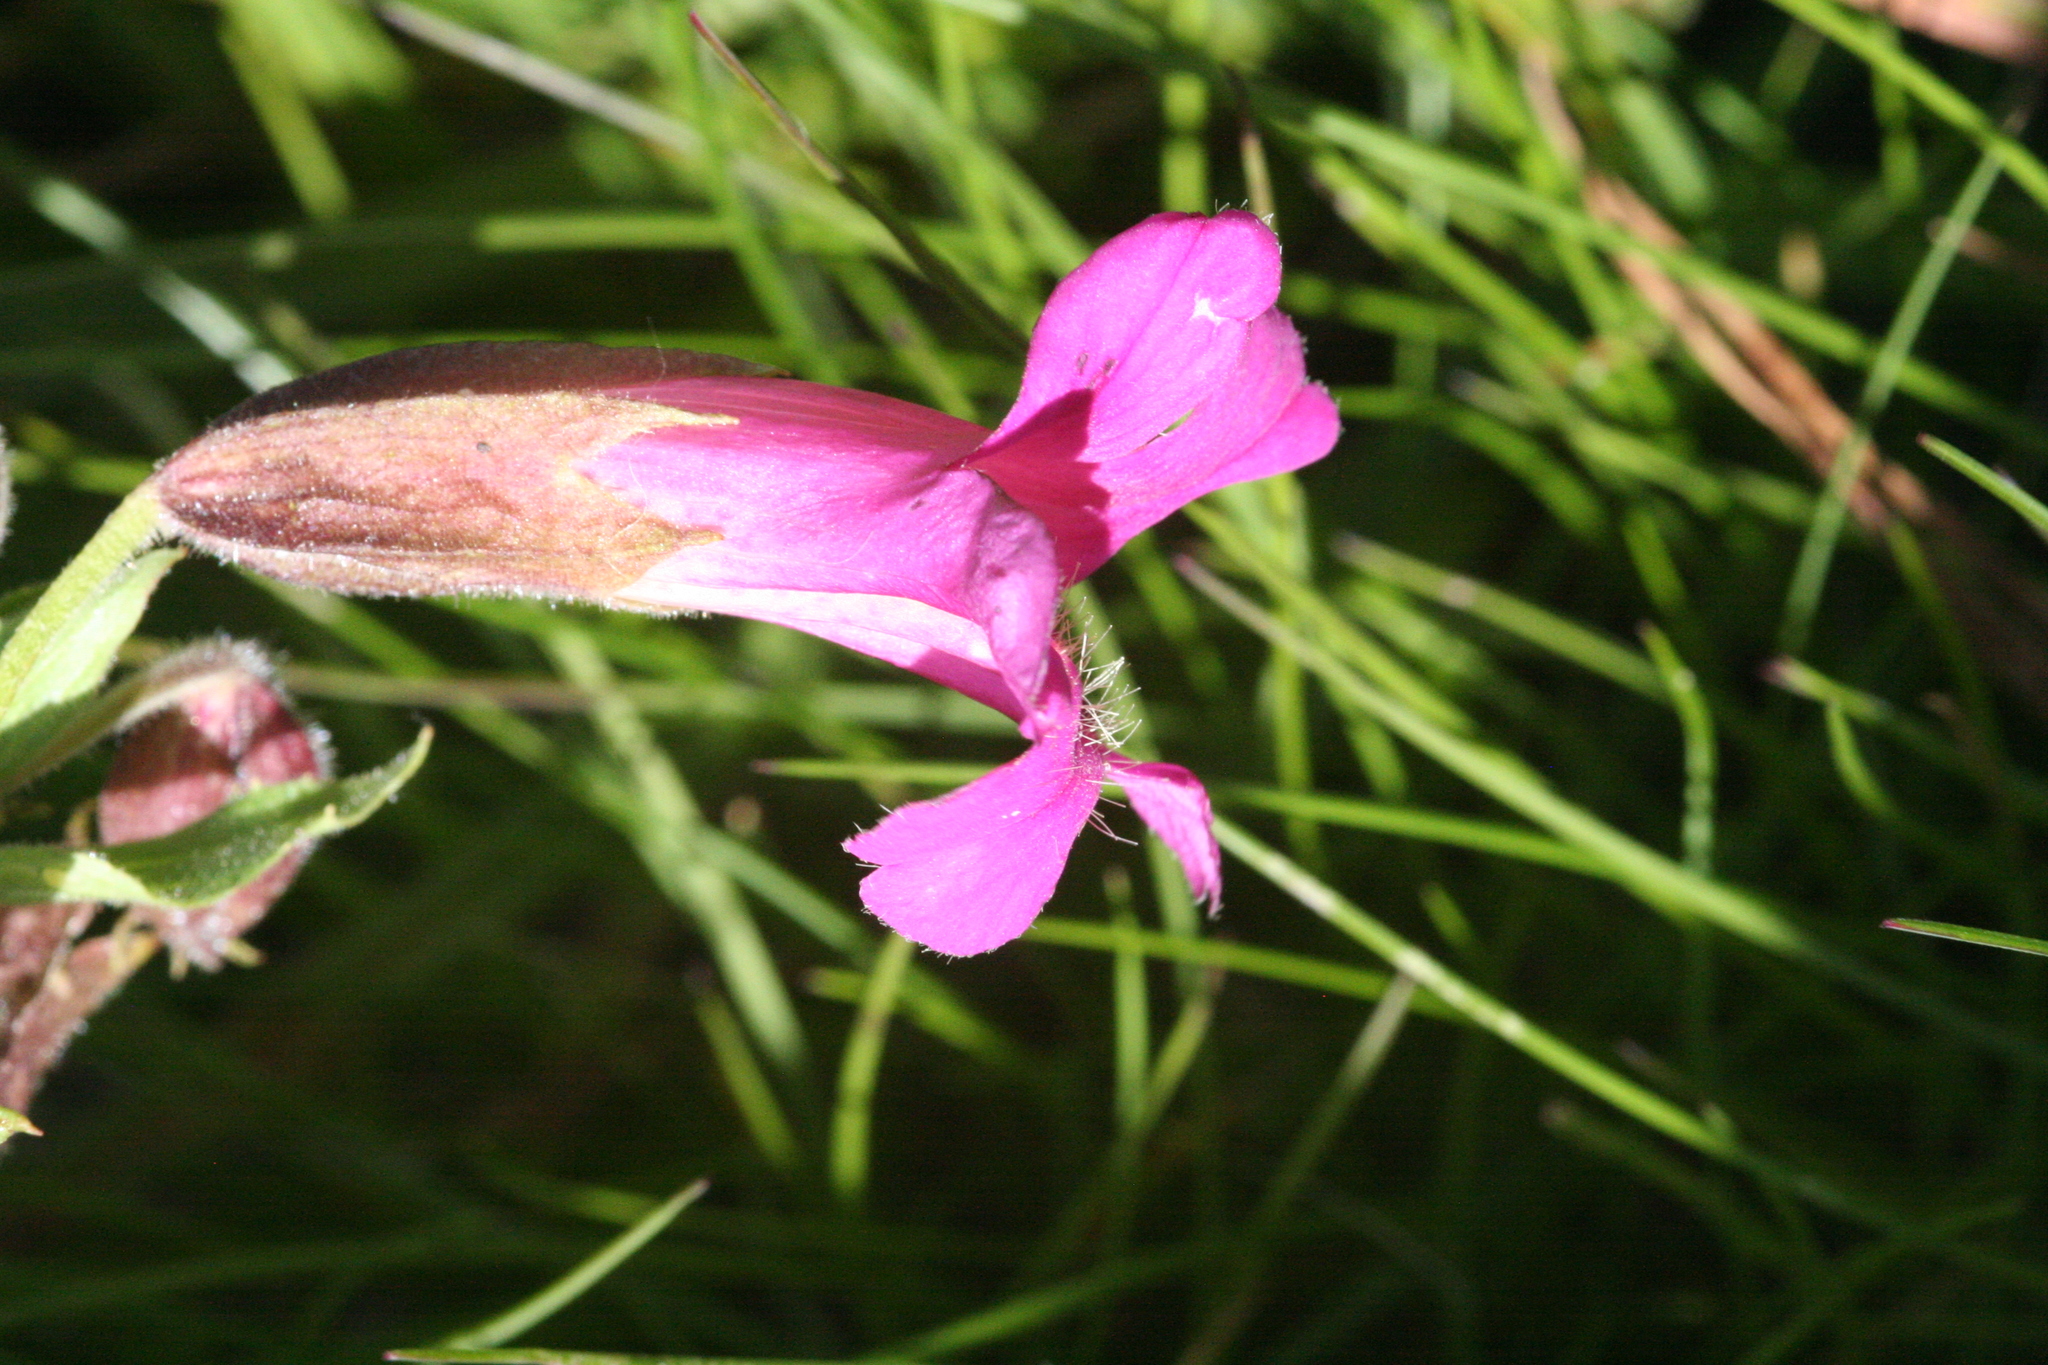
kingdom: Plantae
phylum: Tracheophyta
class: Magnoliopsida
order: Lamiales
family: Phrymaceae
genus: Erythranthe
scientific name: Erythranthe lewisii
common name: Lewis's monkey-flower
